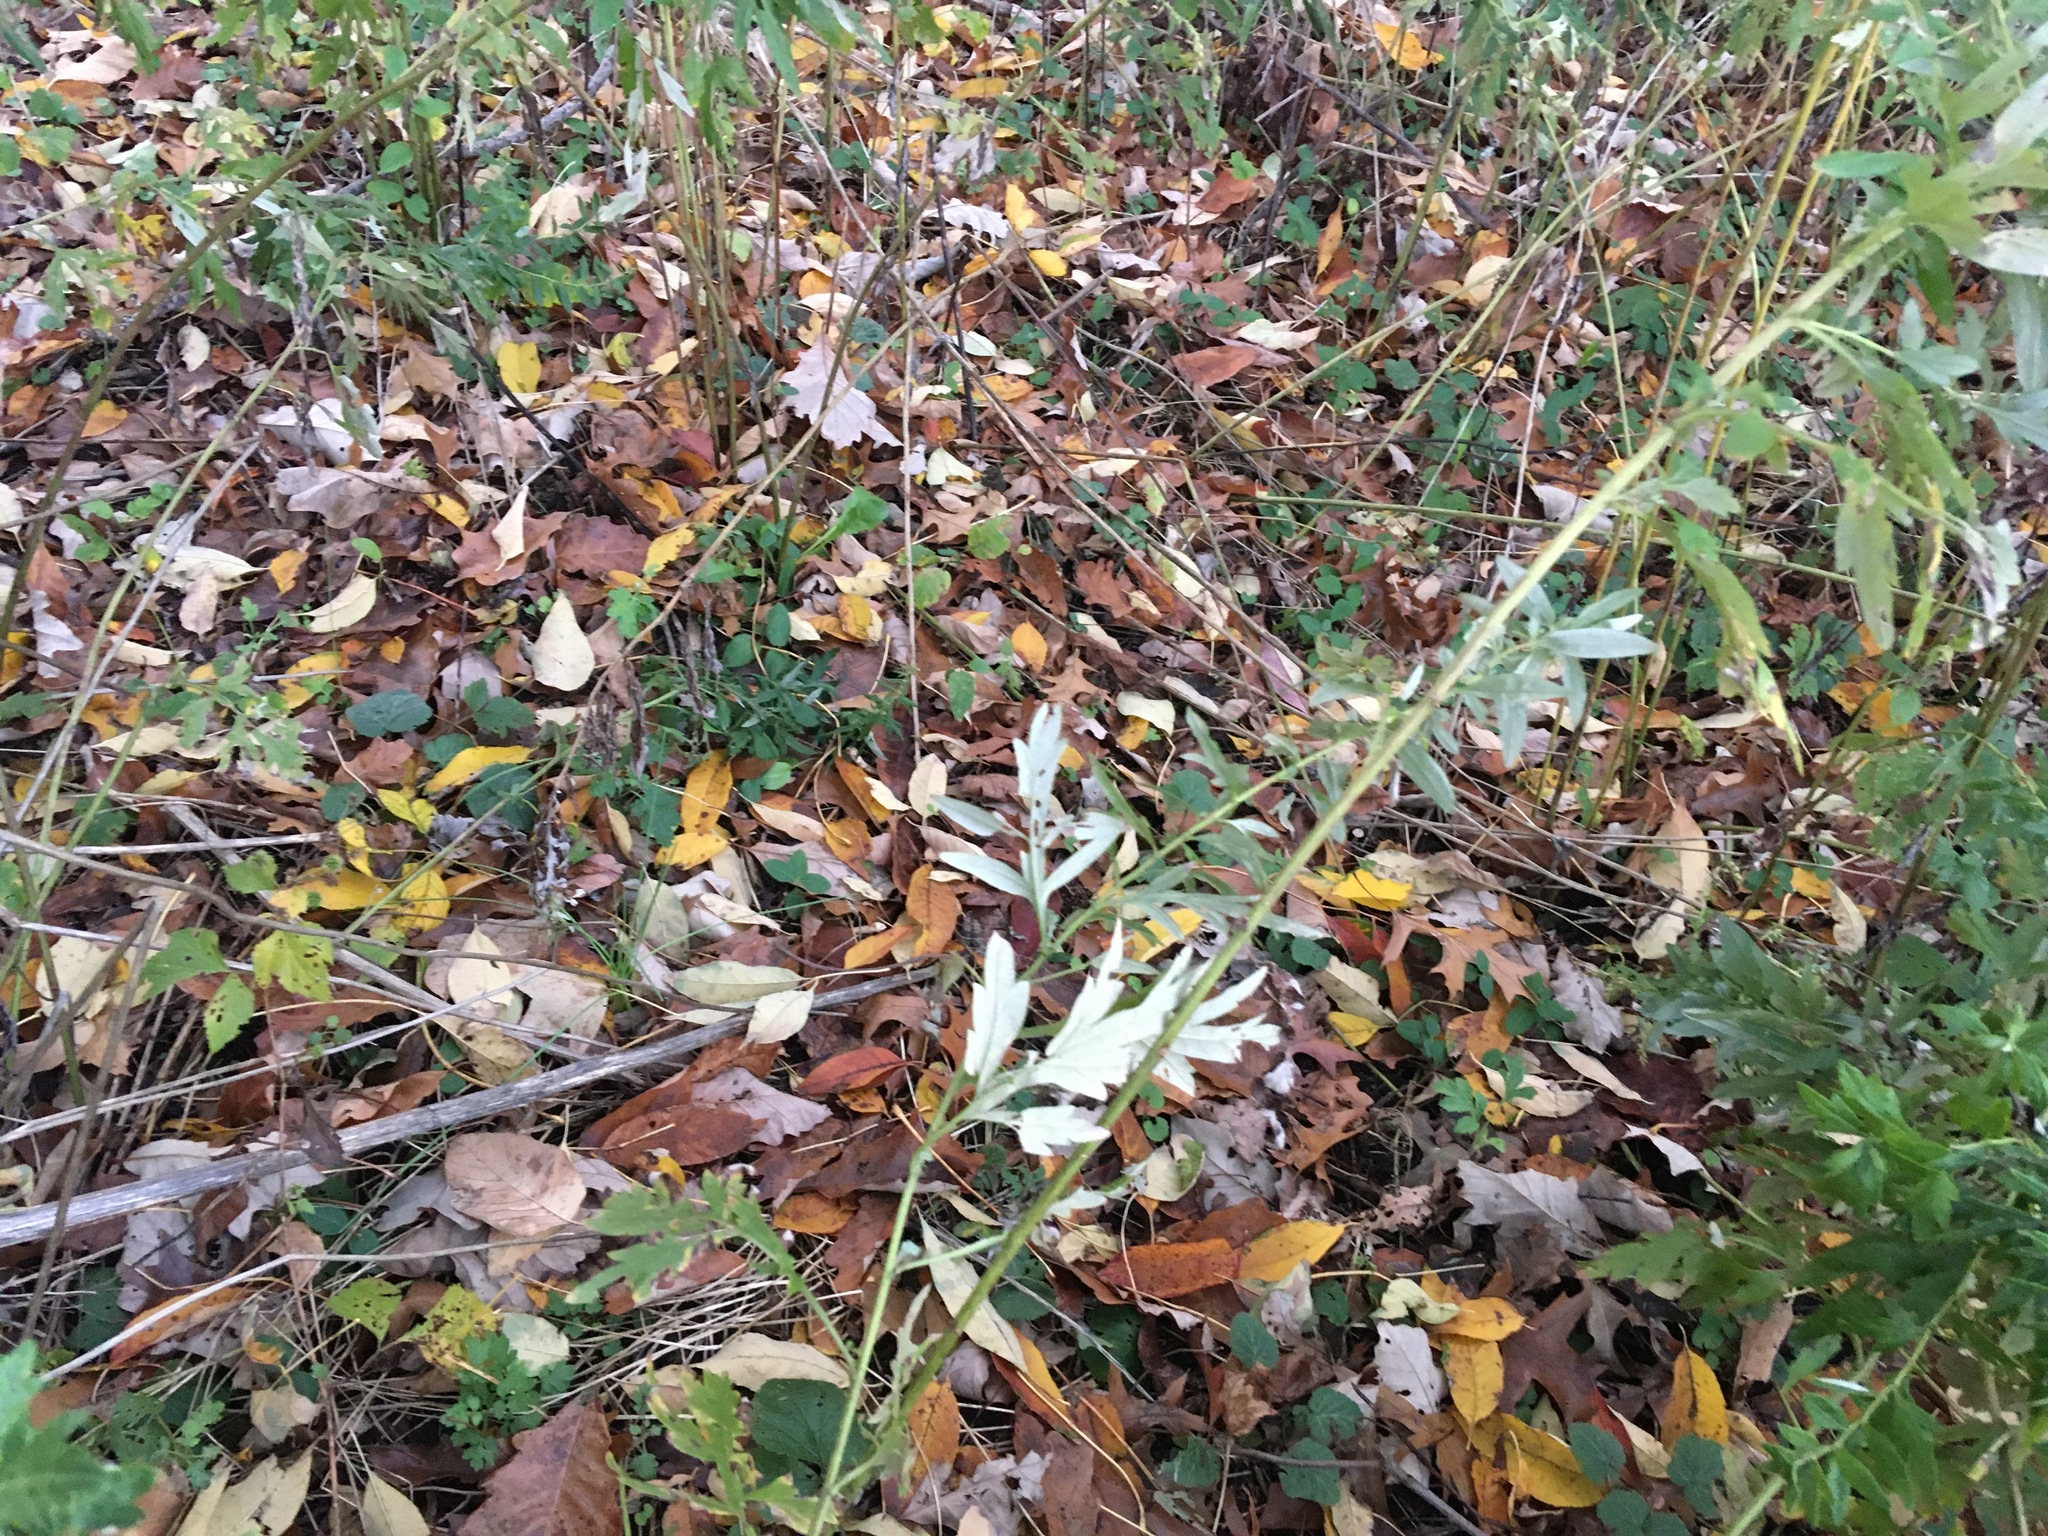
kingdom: Plantae
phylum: Tracheophyta
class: Magnoliopsida
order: Asterales
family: Asteraceae
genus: Artemisia
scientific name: Artemisia vulgaris
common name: Mugwort
